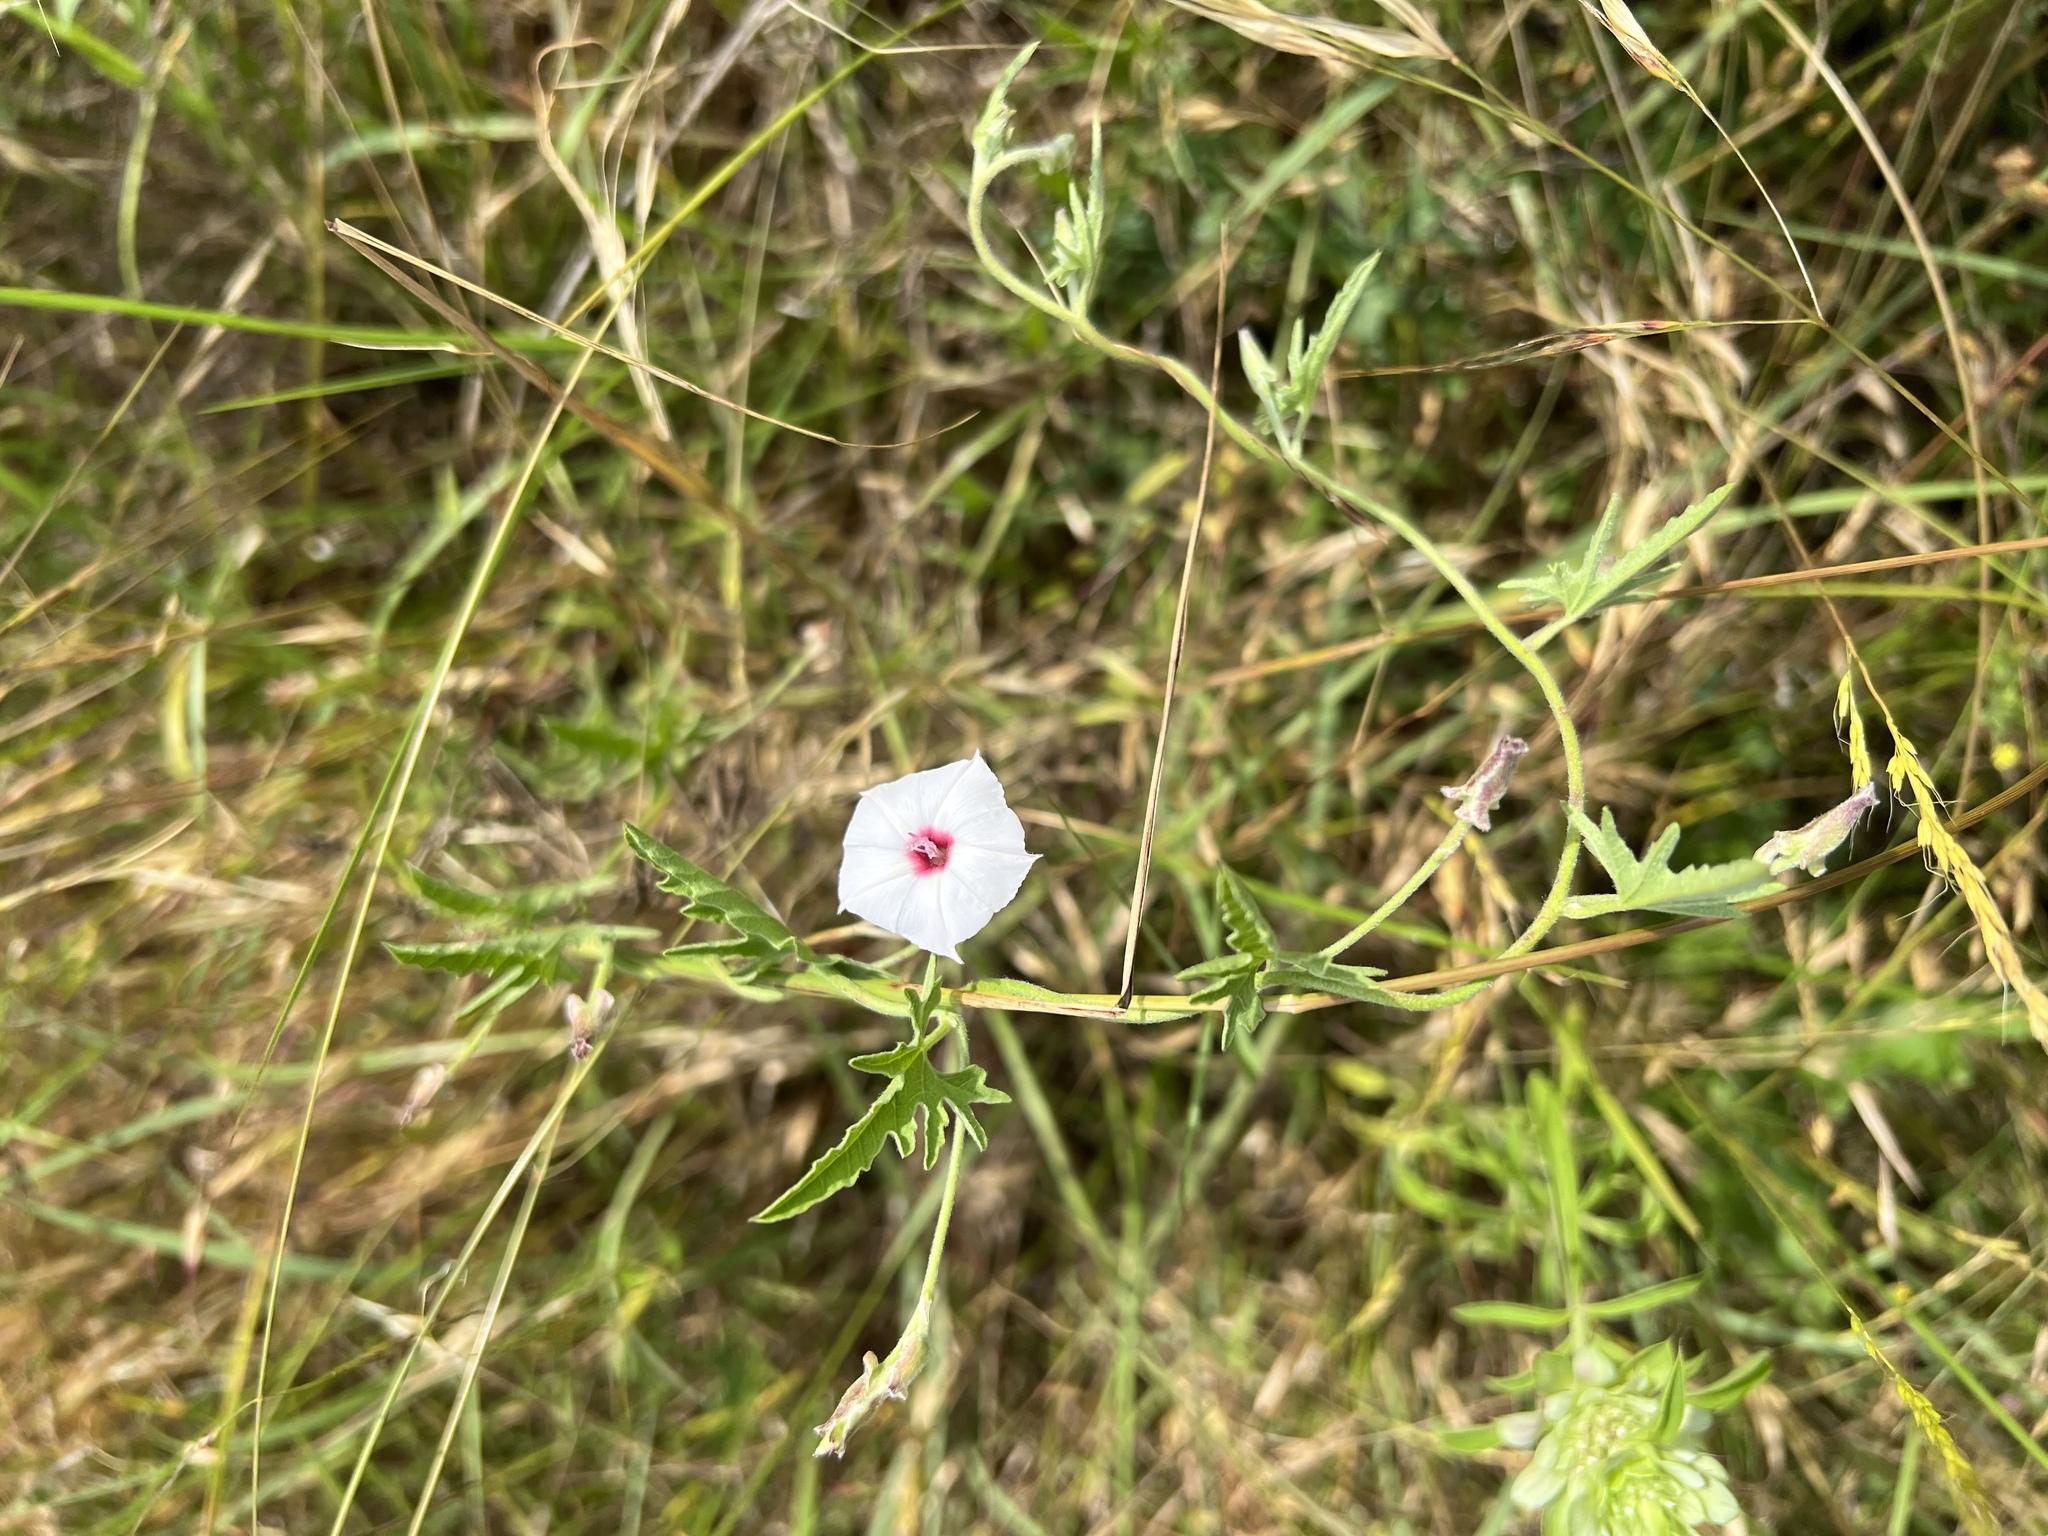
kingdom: Plantae
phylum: Tracheophyta
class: Magnoliopsida
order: Solanales
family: Convolvulaceae
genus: Convolvulus
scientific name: Convolvulus equitans
